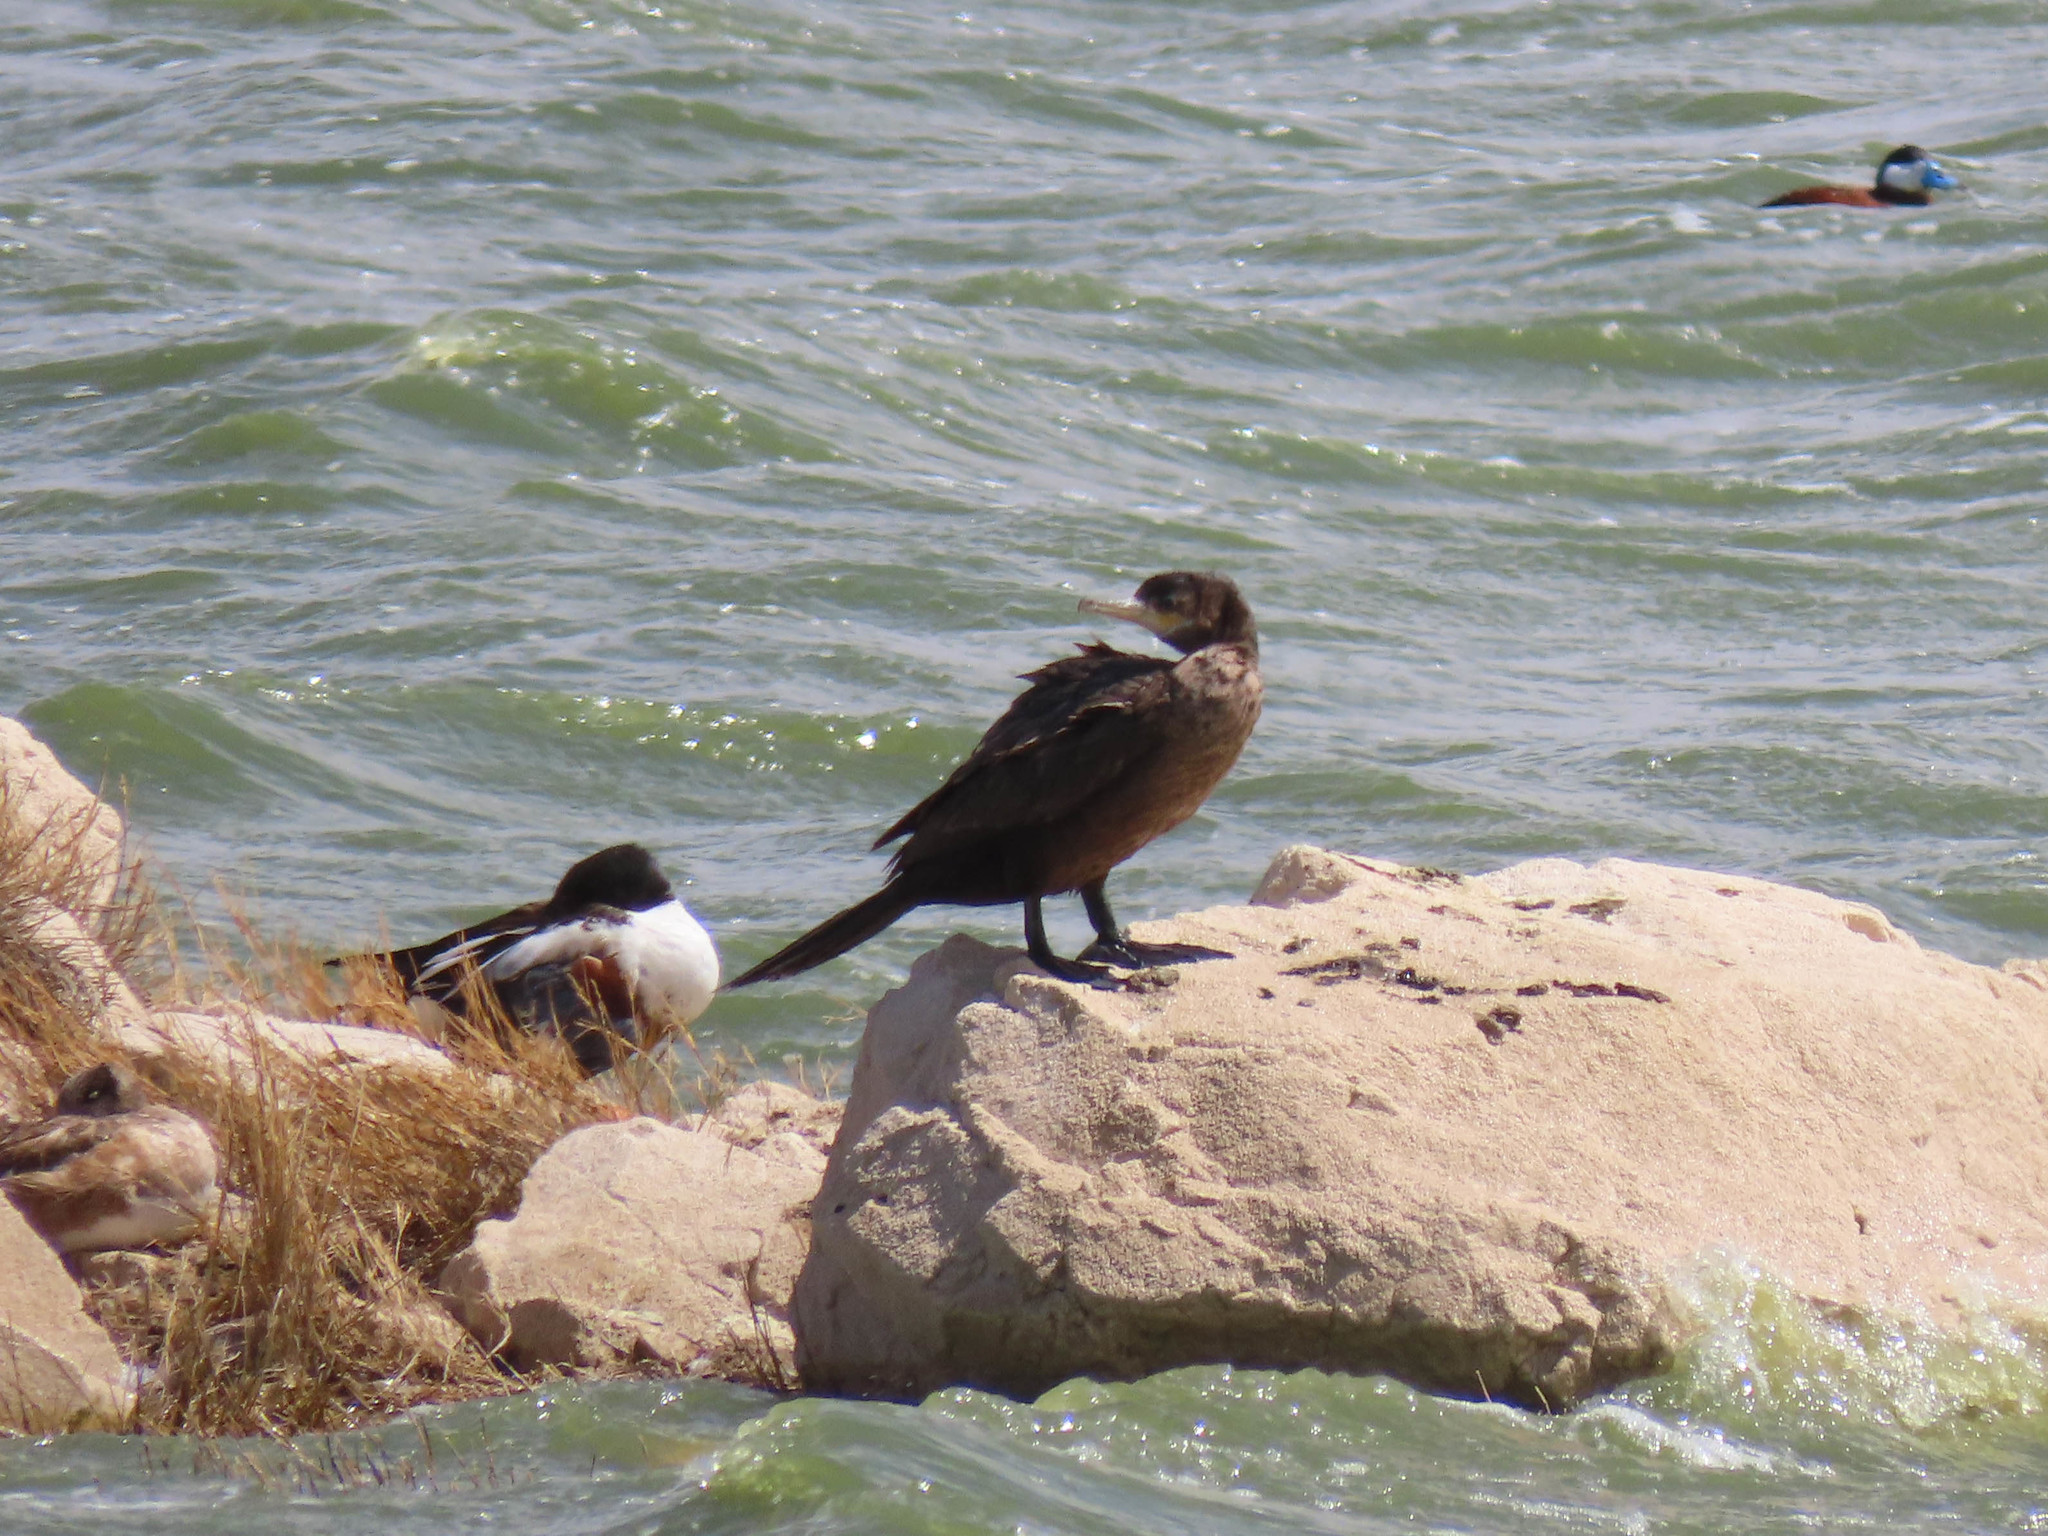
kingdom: Animalia
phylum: Chordata
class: Aves
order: Suliformes
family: Phalacrocoracidae
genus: Phalacrocorax
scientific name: Phalacrocorax brasilianus
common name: Neotropic cormorant
